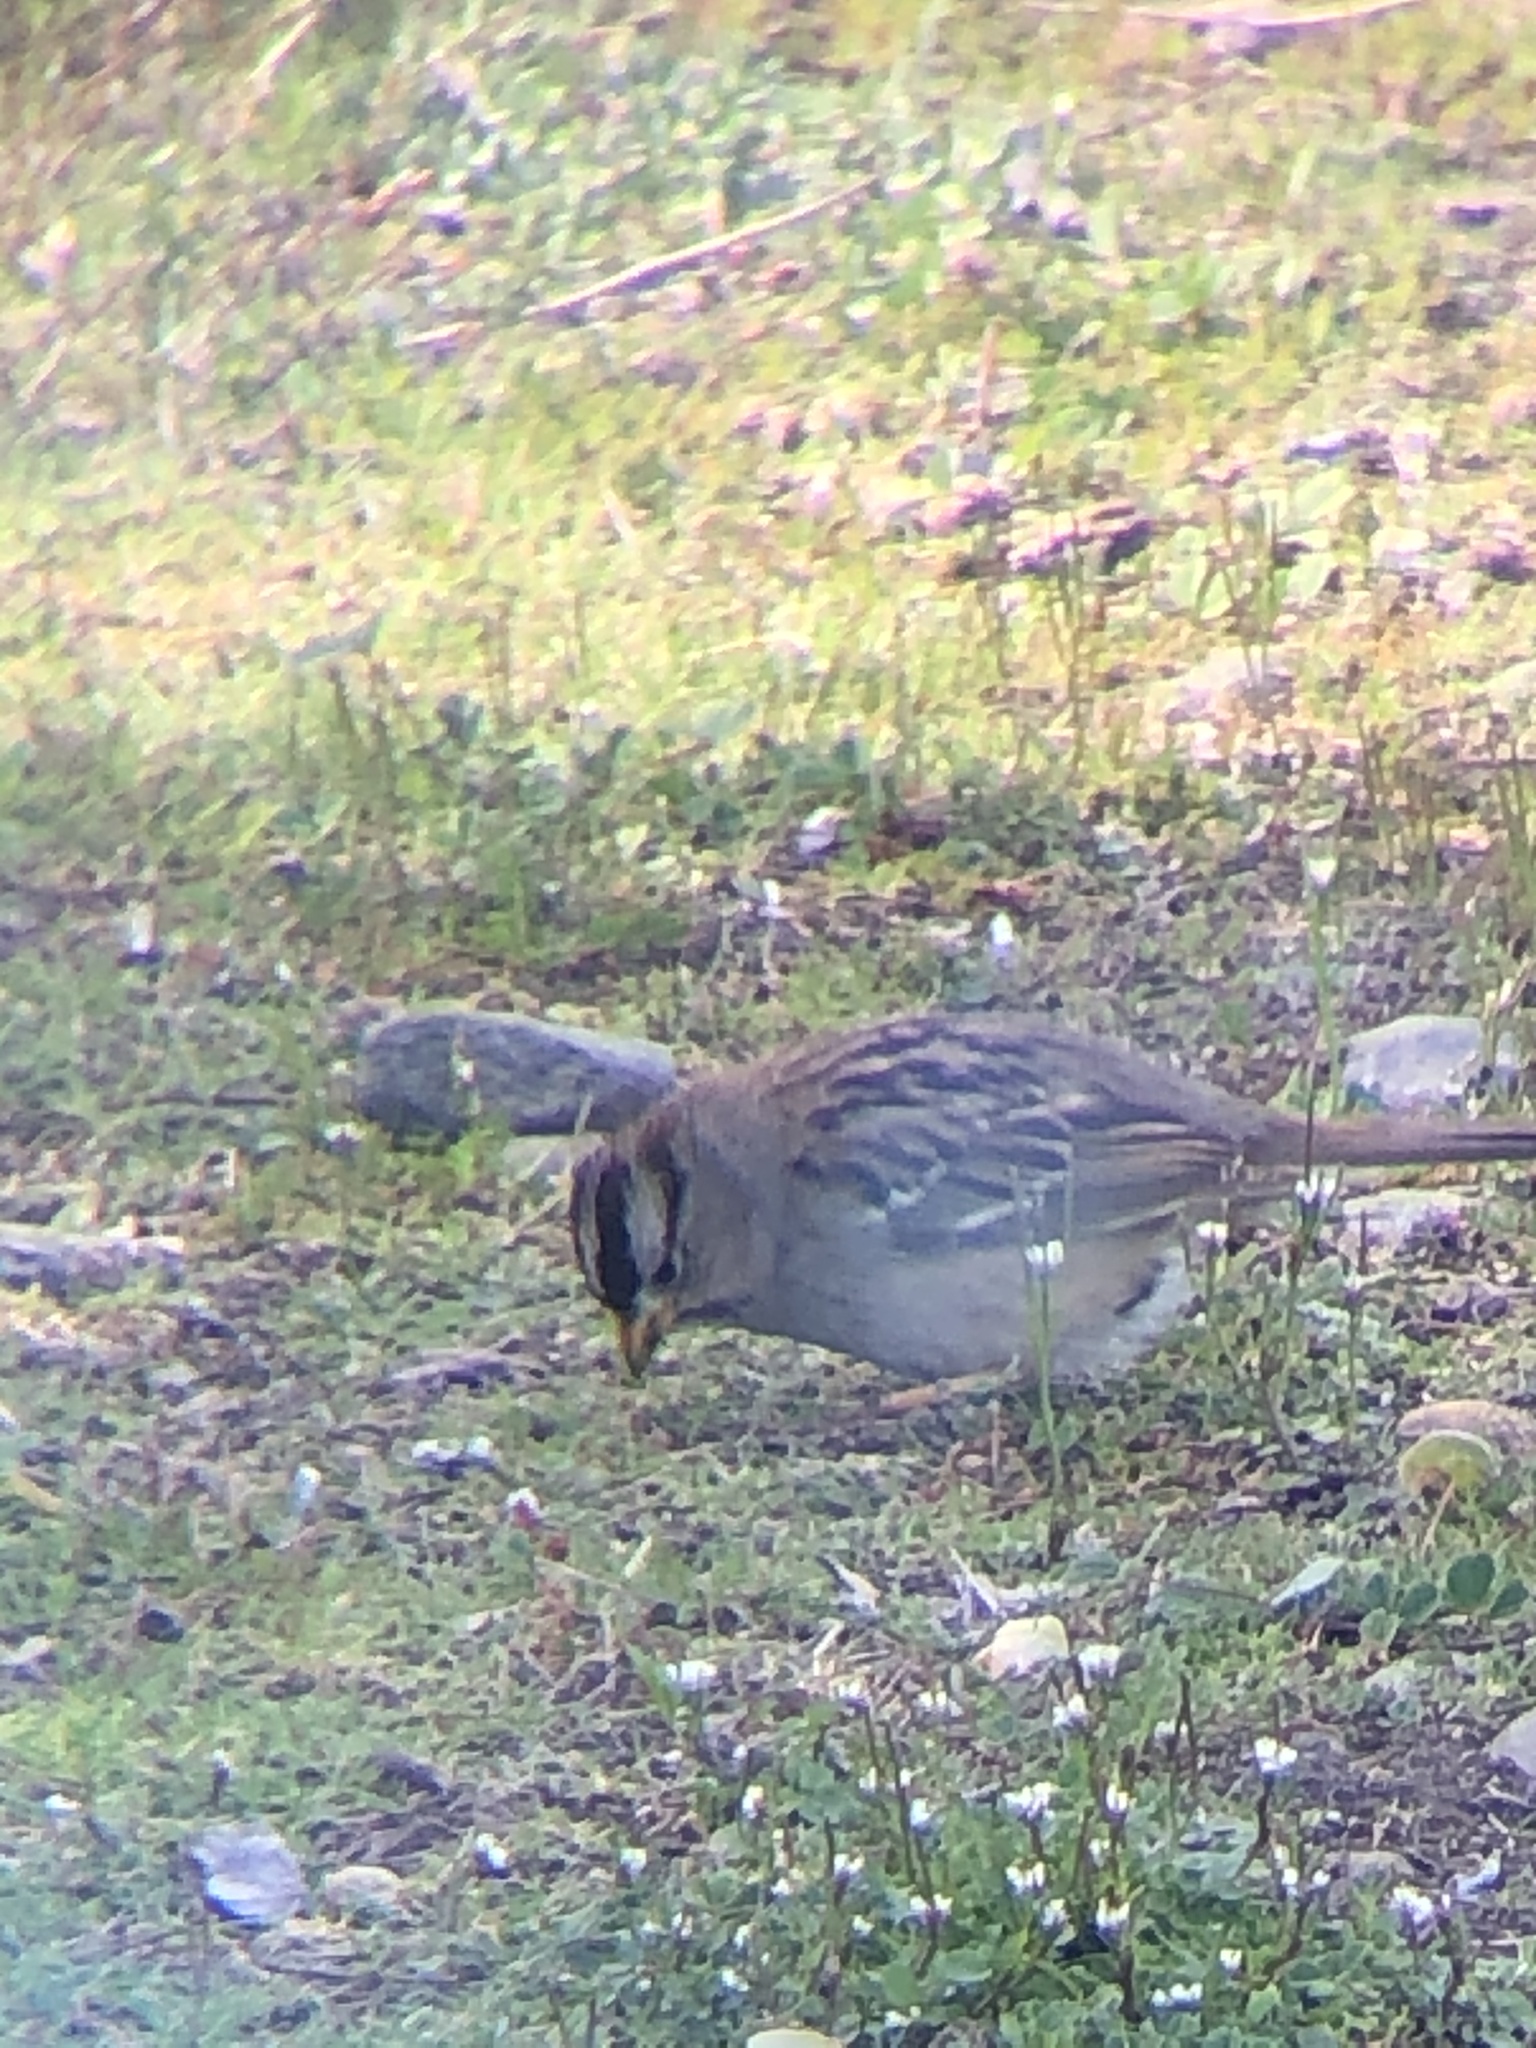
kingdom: Animalia
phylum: Chordata
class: Aves
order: Passeriformes
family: Passerellidae
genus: Zonotrichia
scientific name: Zonotrichia leucophrys
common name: White-crowned sparrow
